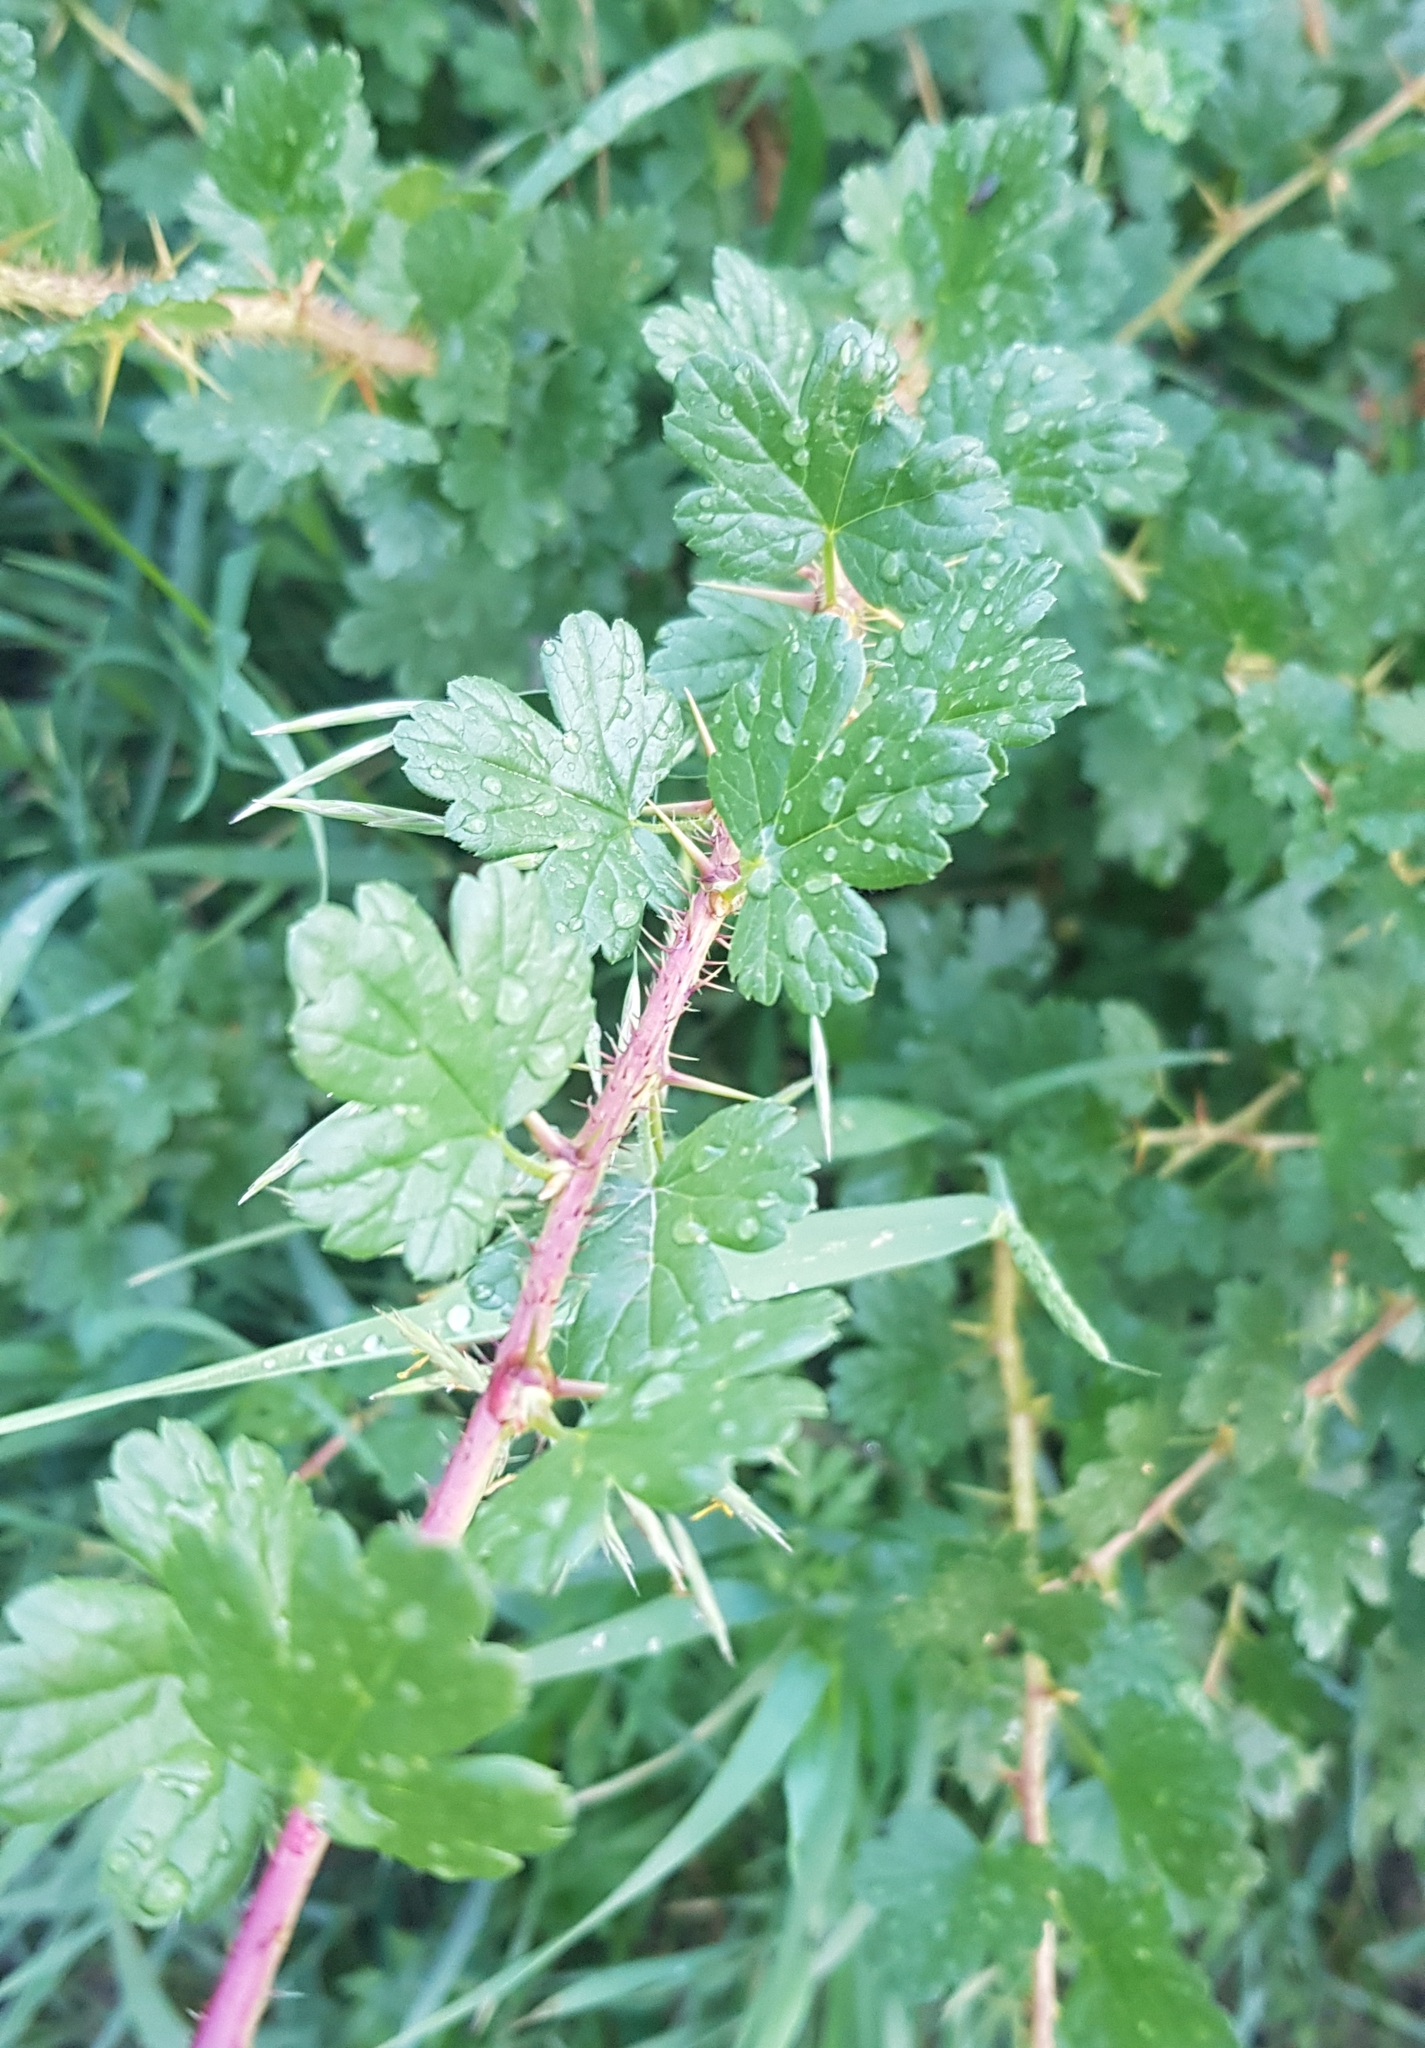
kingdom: Plantae
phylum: Tracheophyta
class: Magnoliopsida
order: Saxifragales
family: Grossulariaceae
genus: Ribes
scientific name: Ribes aciculare
